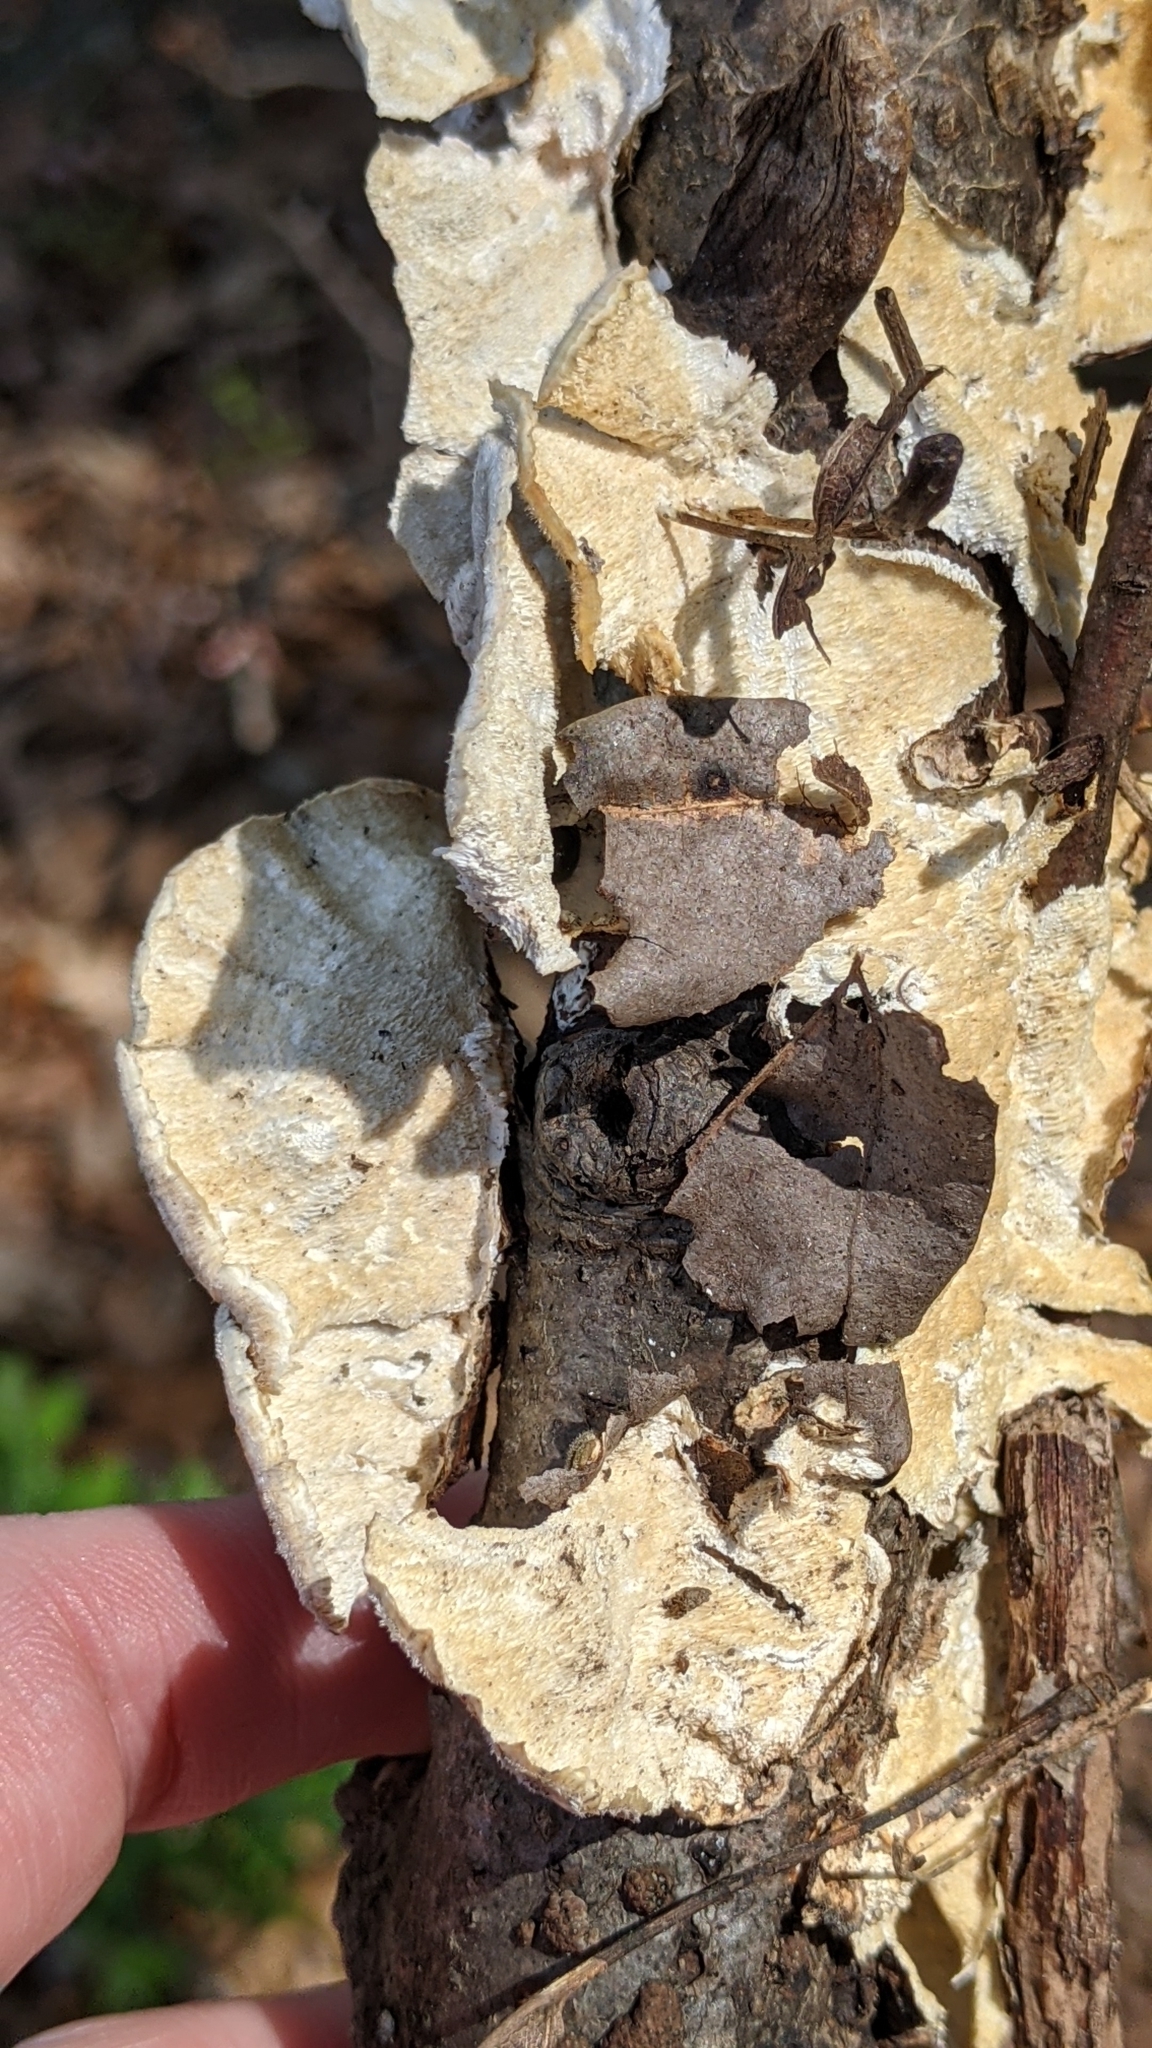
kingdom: Fungi
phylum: Basidiomycota
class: Agaricomycetes
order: Polyporales
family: Polyporaceae
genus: Trametes
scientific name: Trametes versicolor
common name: Turkeytail
